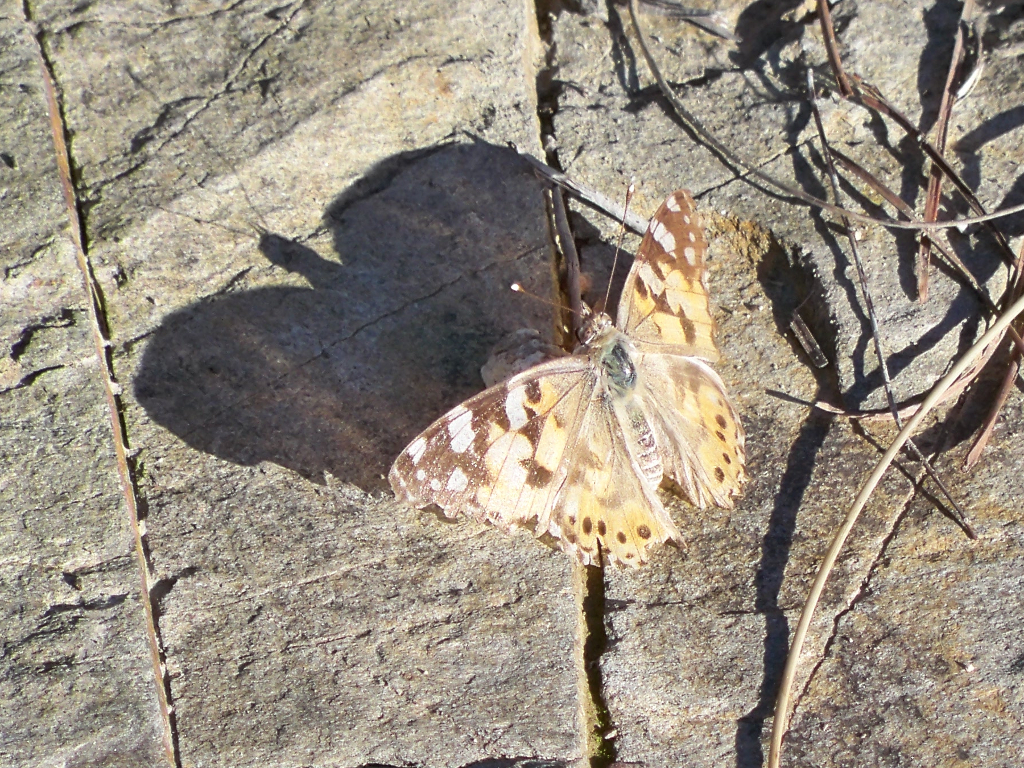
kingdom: Animalia
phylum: Arthropoda
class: Insecta
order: Lepidoptera
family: Nymphalidae
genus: Vanessa
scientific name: Vanessa cardui
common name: Painted lady
